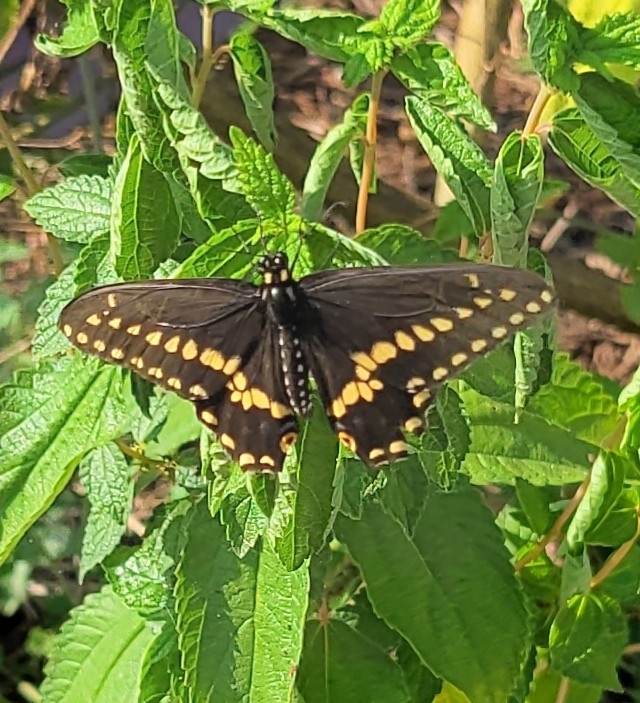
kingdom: Animalia
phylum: Arthropoda
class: Insecta
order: Lepidoptera
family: Papilionidae
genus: Papilio
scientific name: Papilio polyxenes
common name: Black swallowtail
